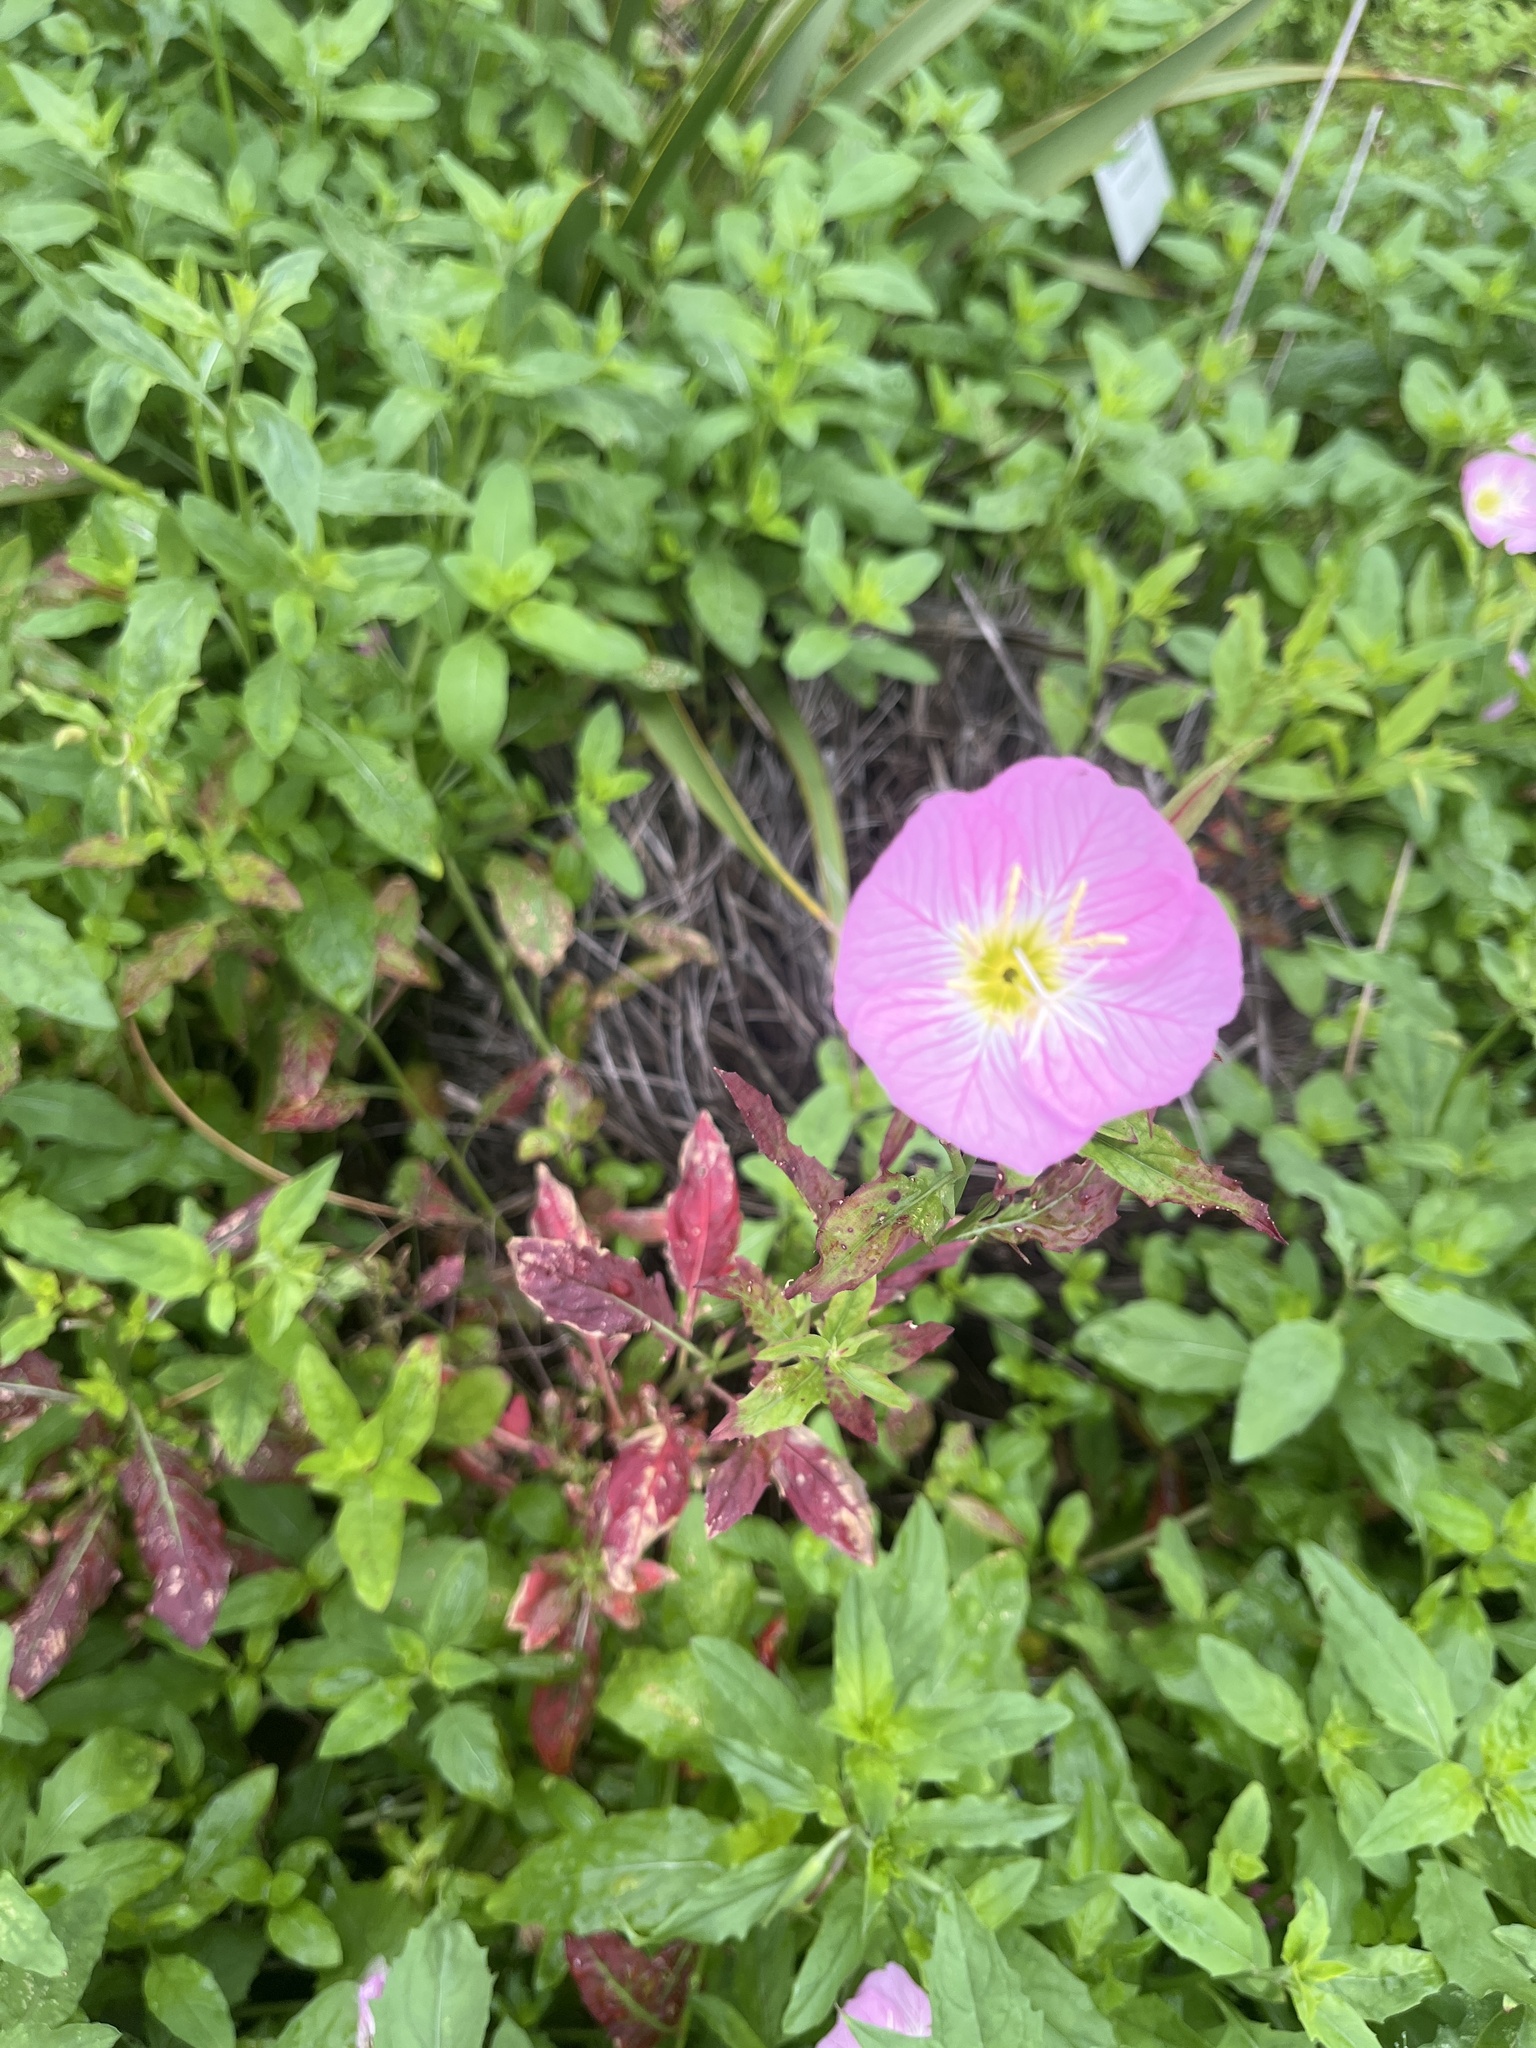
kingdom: Plantae
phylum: Tracheophyta
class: Magnoliopsida
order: Myrtales
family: Onagraceae
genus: Oenothera
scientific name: Oenothera speciosa
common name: White evening-primrose
